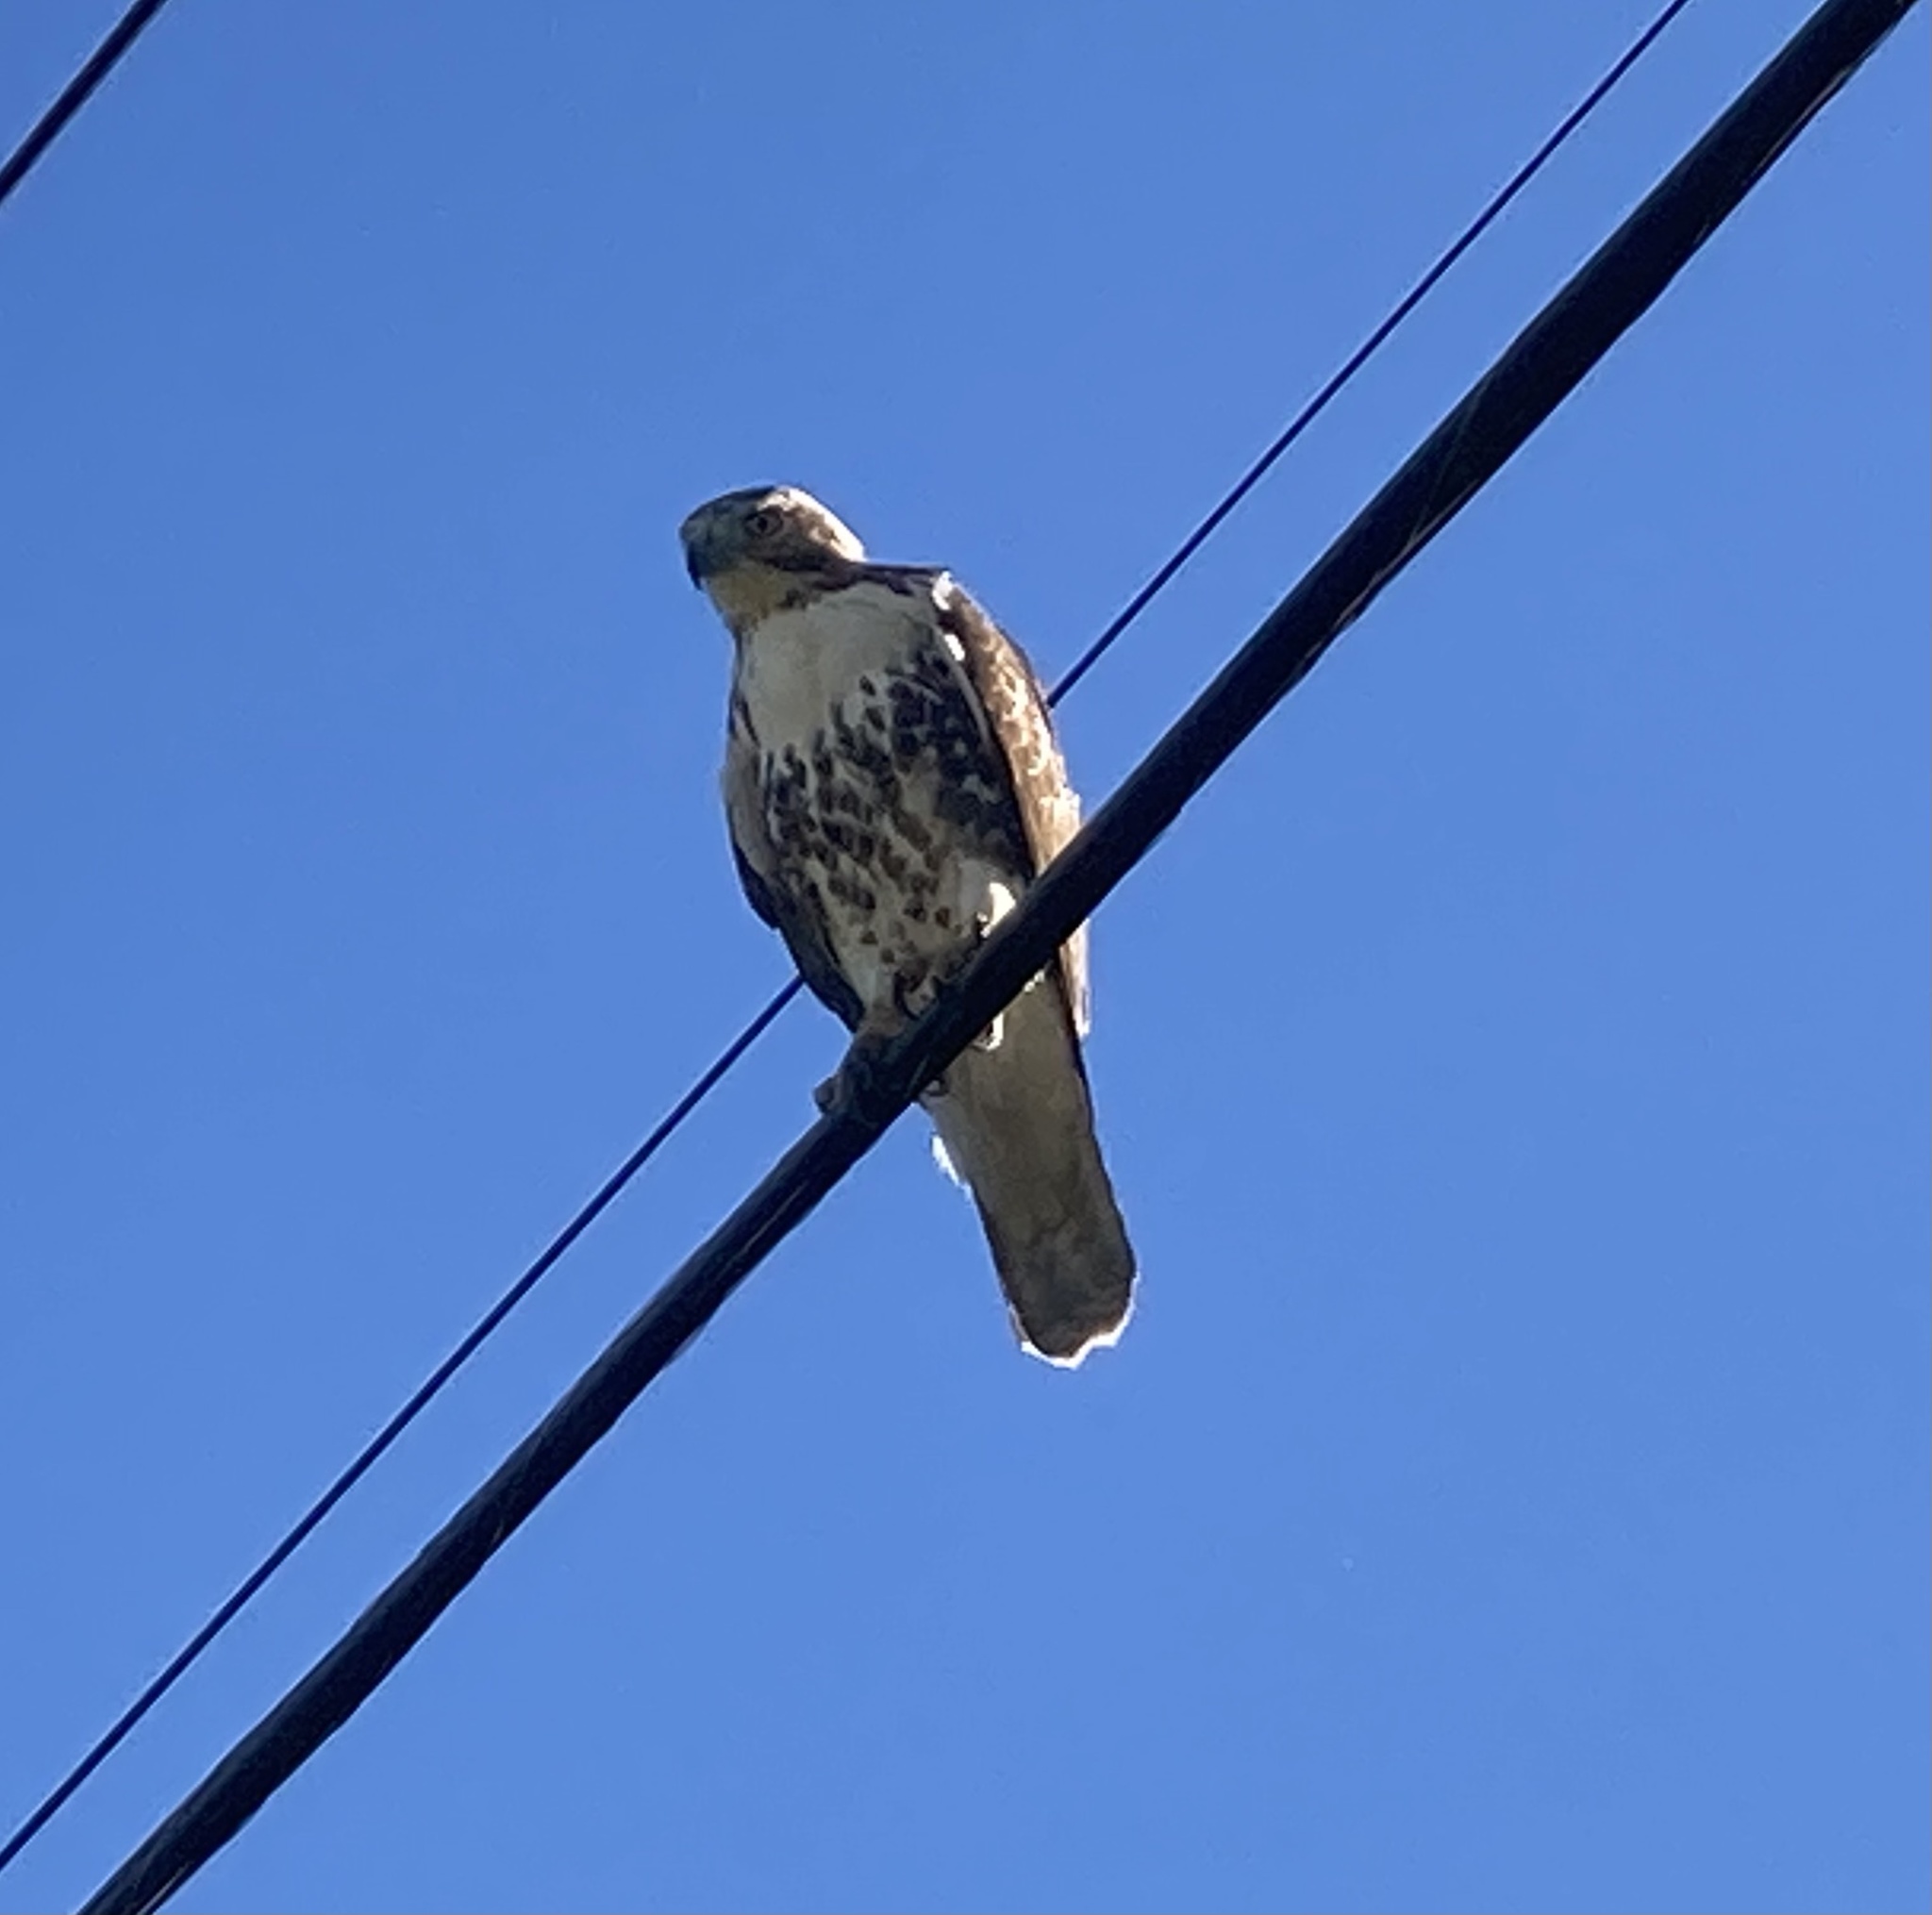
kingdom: Animalia
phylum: Chordata
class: Aves
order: Accipitriformes
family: Accipitridae
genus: Buteo
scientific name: Buteo jamaicensis
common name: Red-tailed hawk
